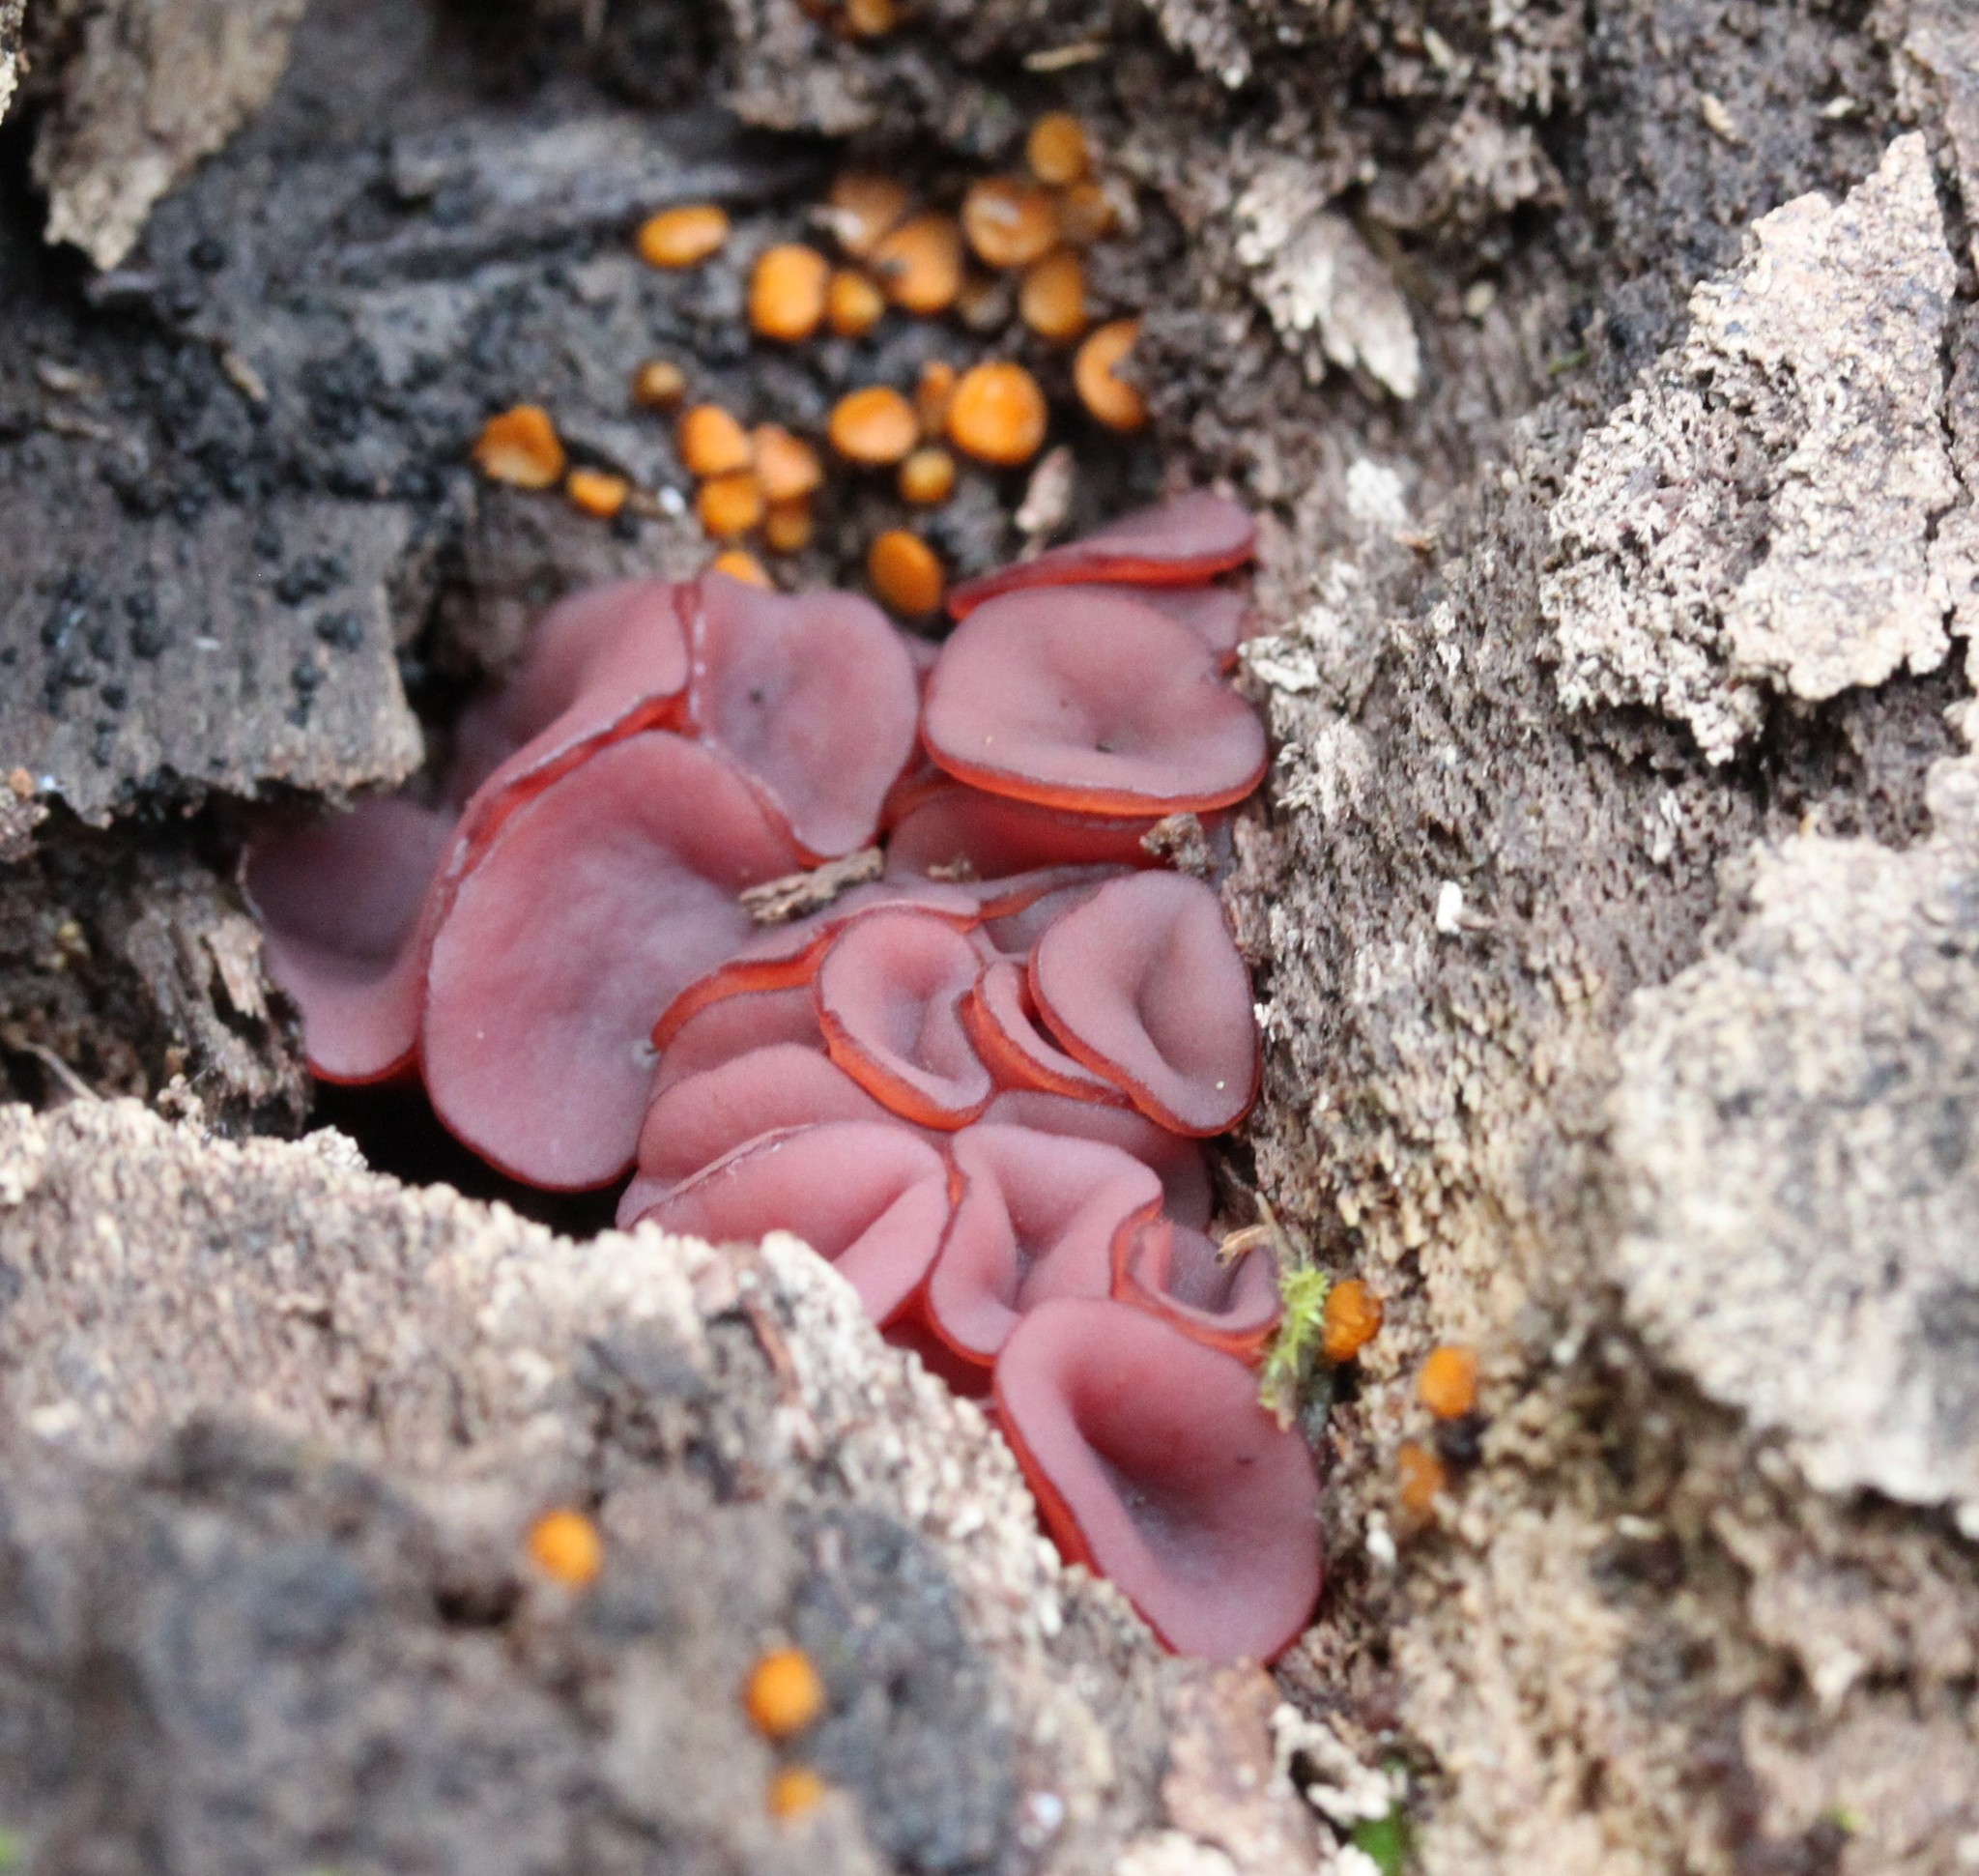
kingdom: Fungi
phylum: Ascomycota
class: Leotiomycetes
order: Helotiales
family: Gelatinodiscaceae
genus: Ascocoryne
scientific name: Ascocoryne cylichnium
